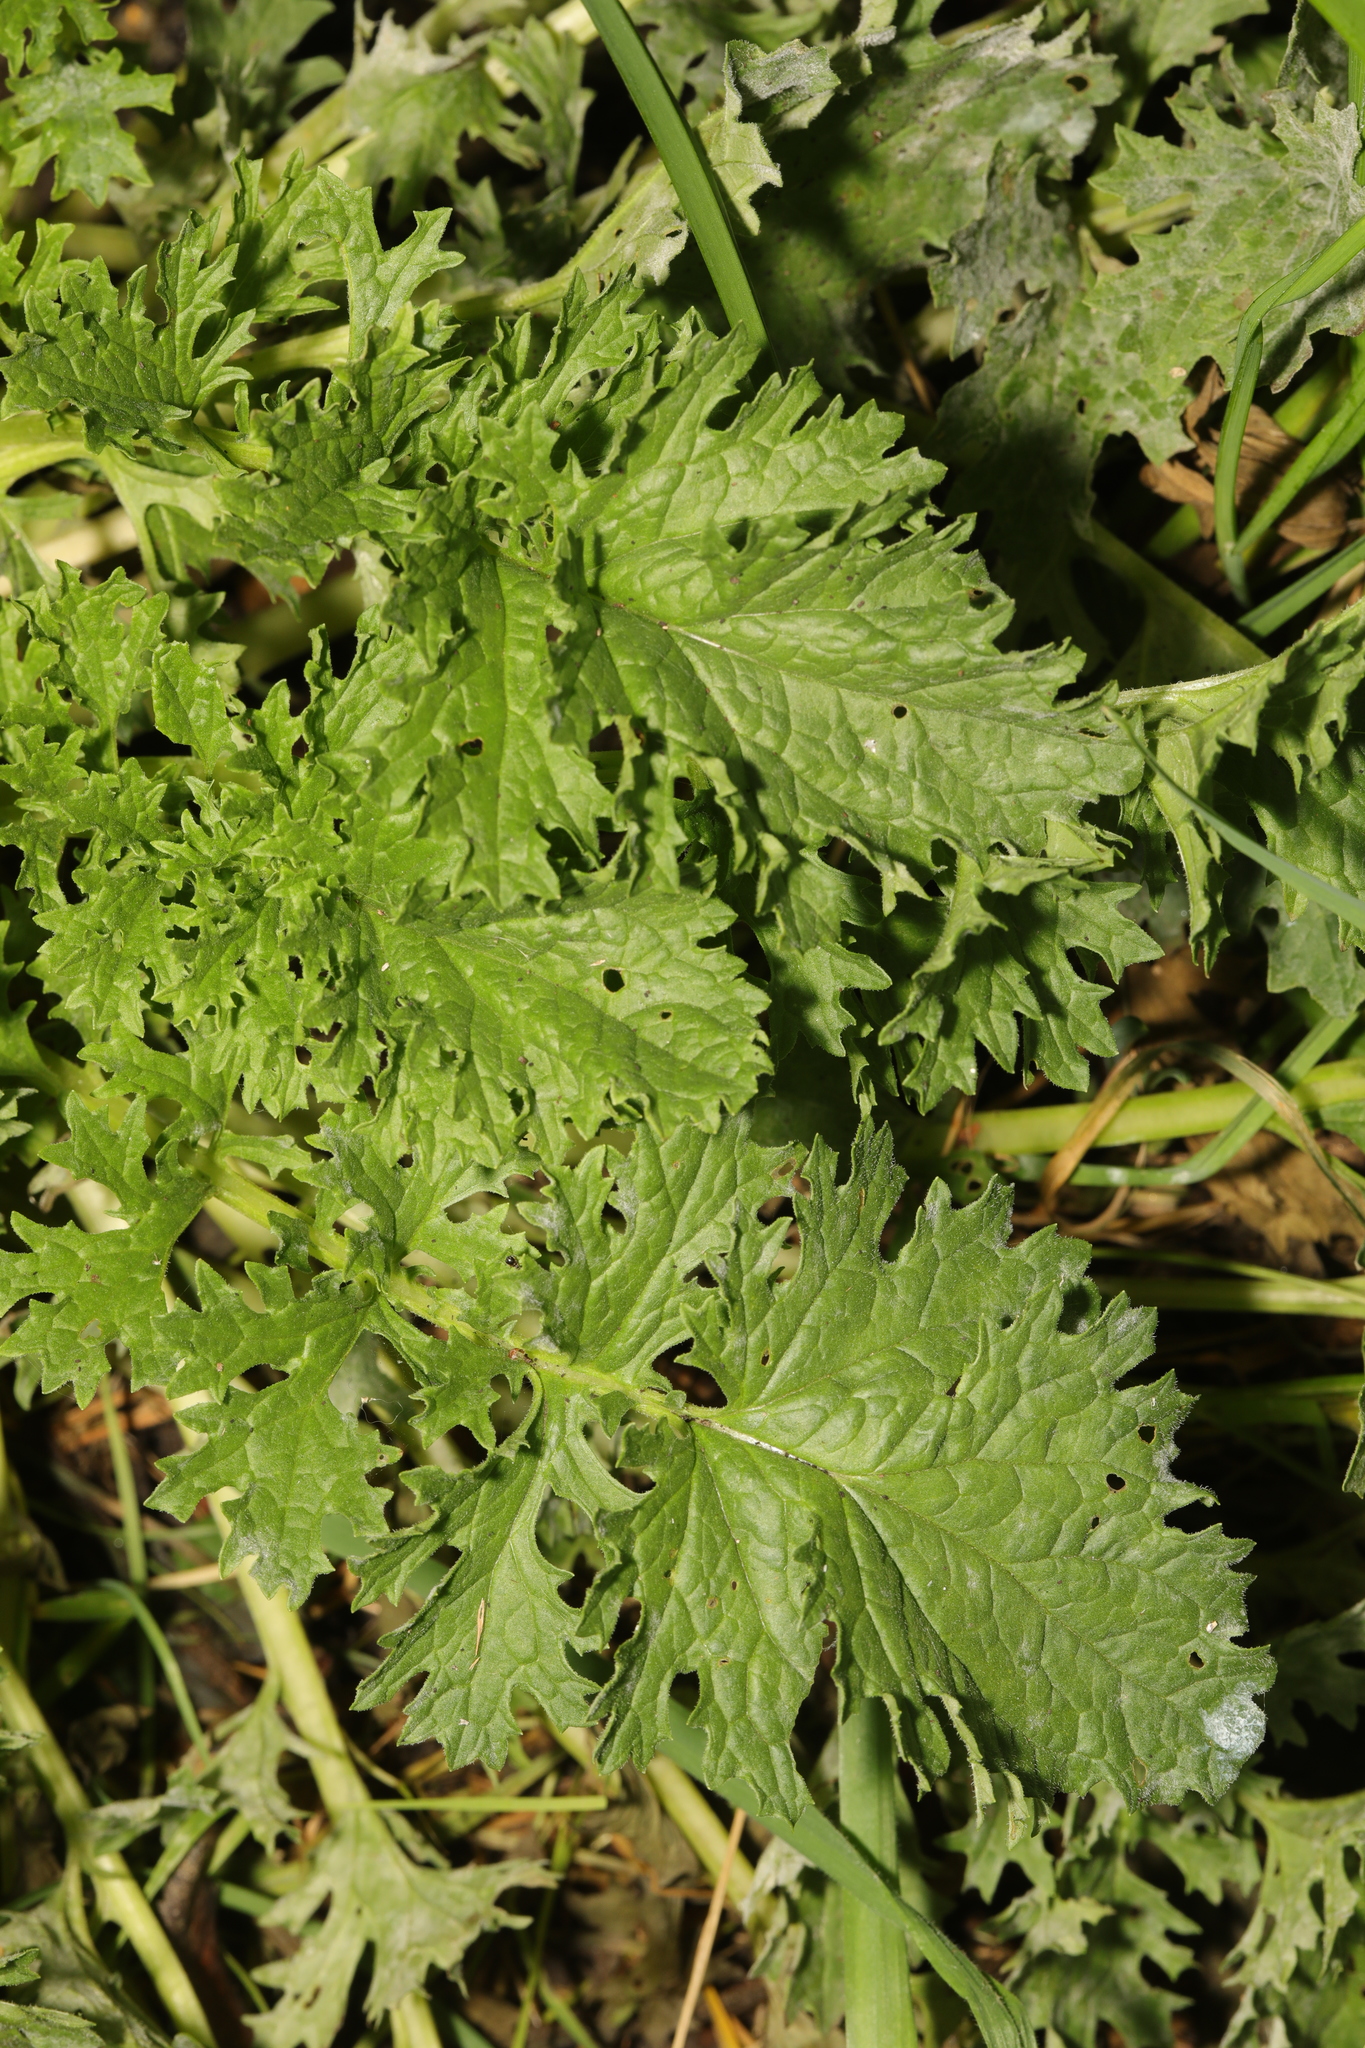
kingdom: Plantae
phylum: Tracheophyta
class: Magnoliopsida
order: Asterales
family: Asteraceae
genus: Jacobaea
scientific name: Jacobaea vulgaris
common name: Stinking willie
